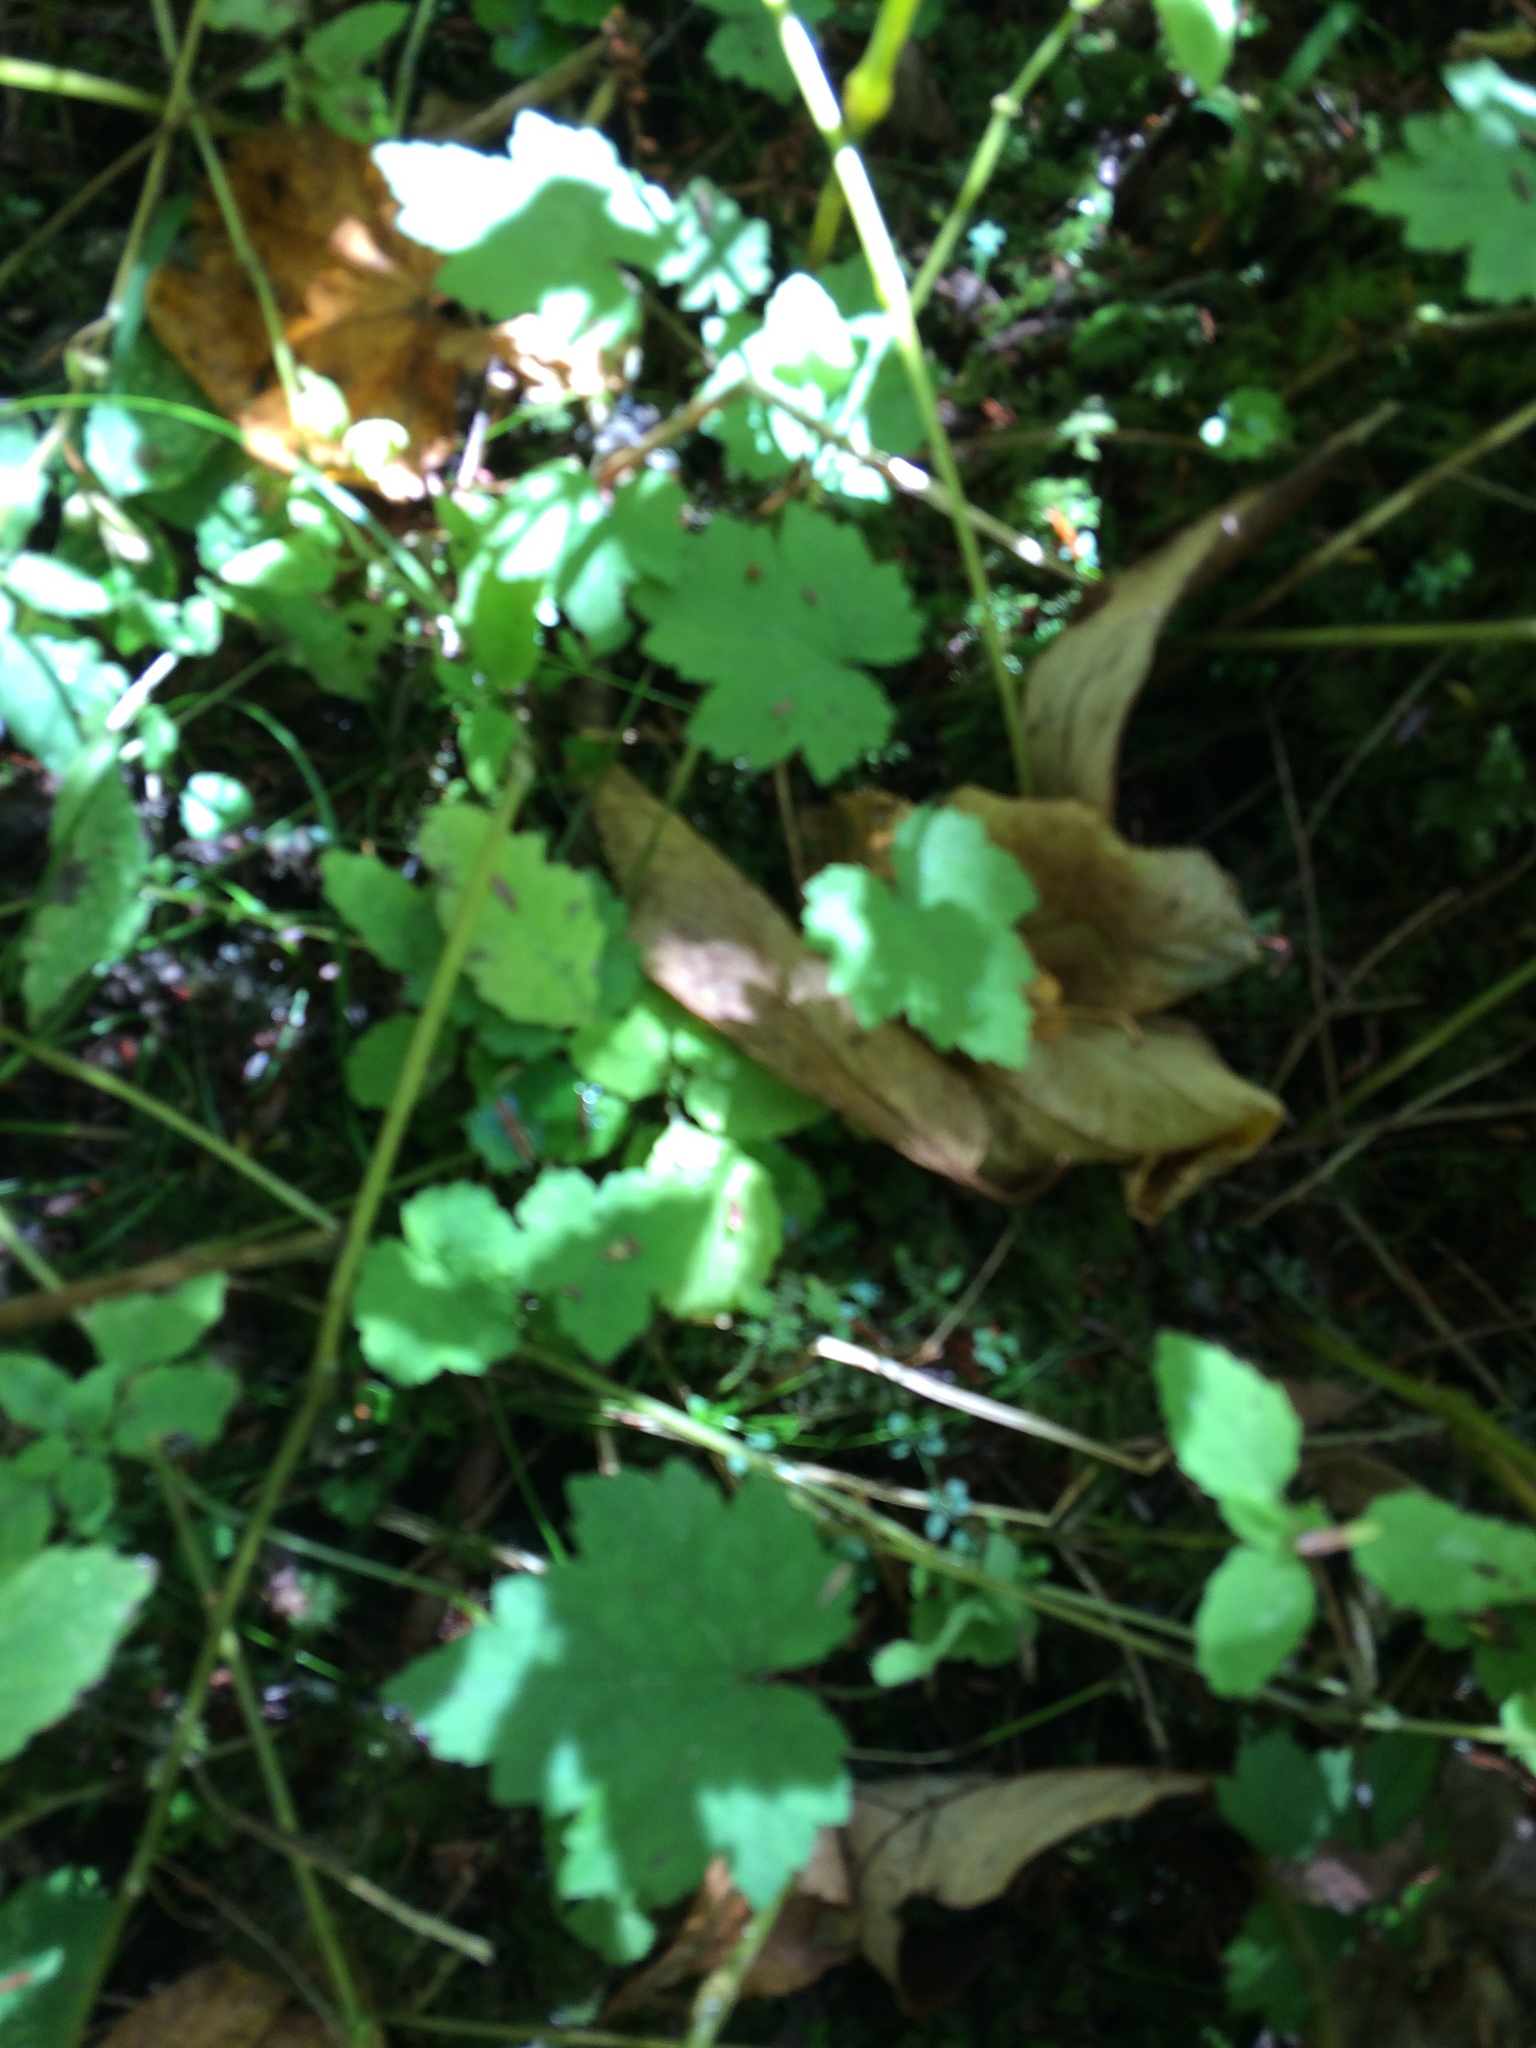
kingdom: Plantae
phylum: Tracheophyta
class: Magnoliopsida
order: Saxifragales
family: Saxifragaceae
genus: Tiarella
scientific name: Tiarella stolonifera
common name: Stoloniferous foamflower
